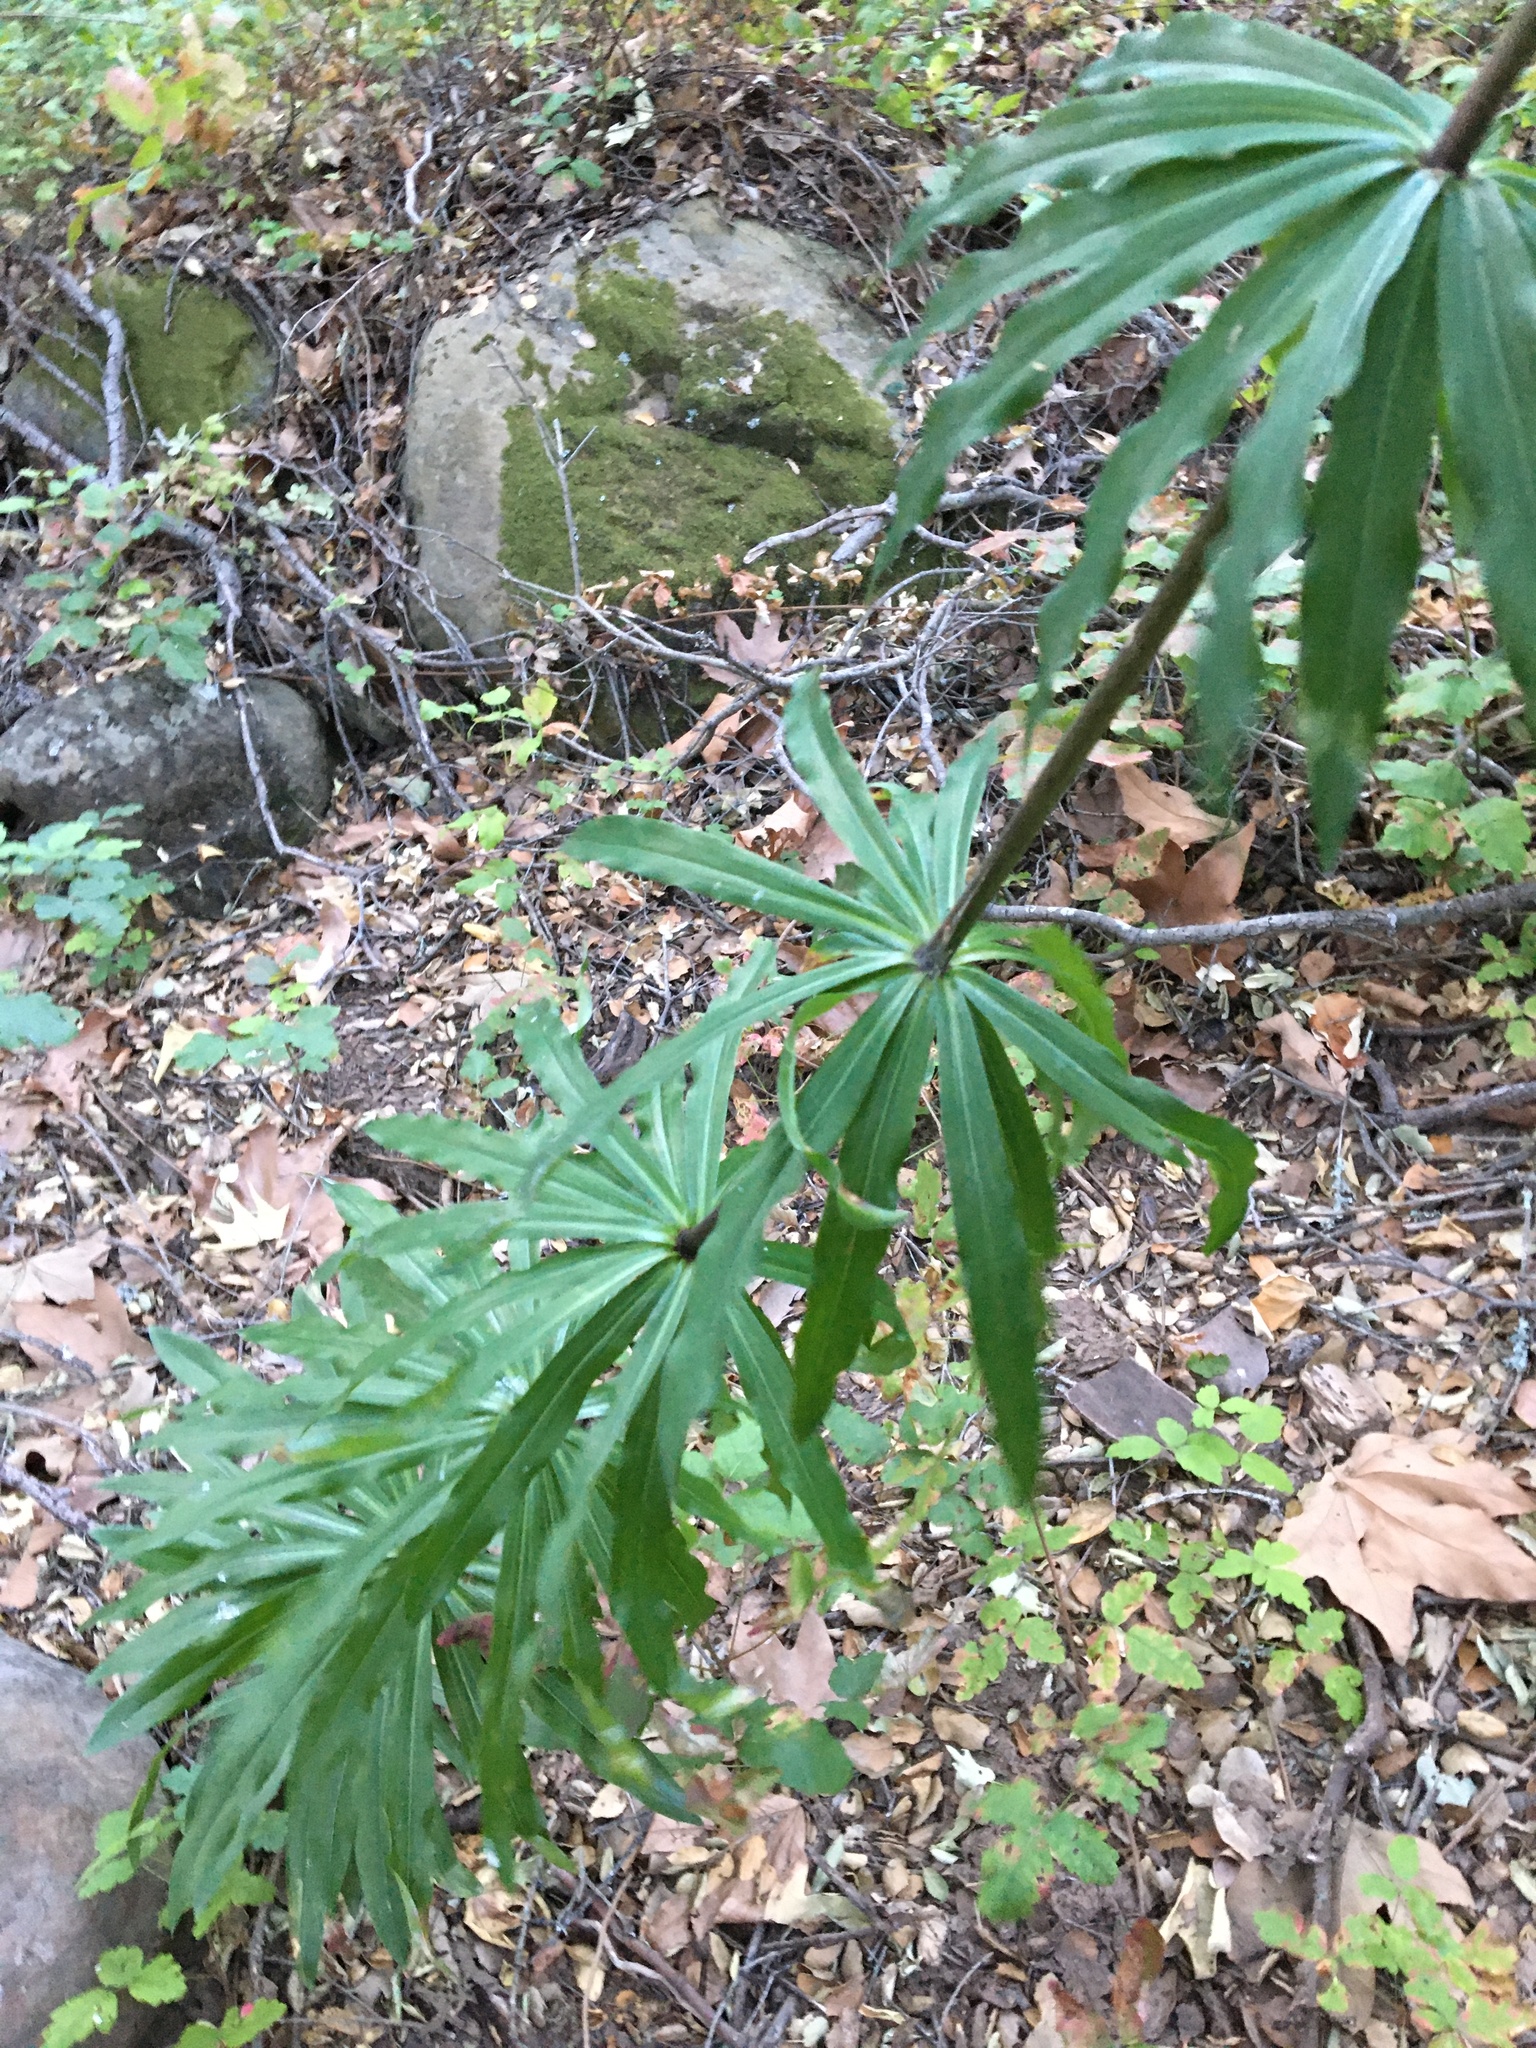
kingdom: Plantae
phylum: Tracheophyta
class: Liliopsida
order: Liliales
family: Liliaceae
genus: Lilium
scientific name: Lilium humboldtii
